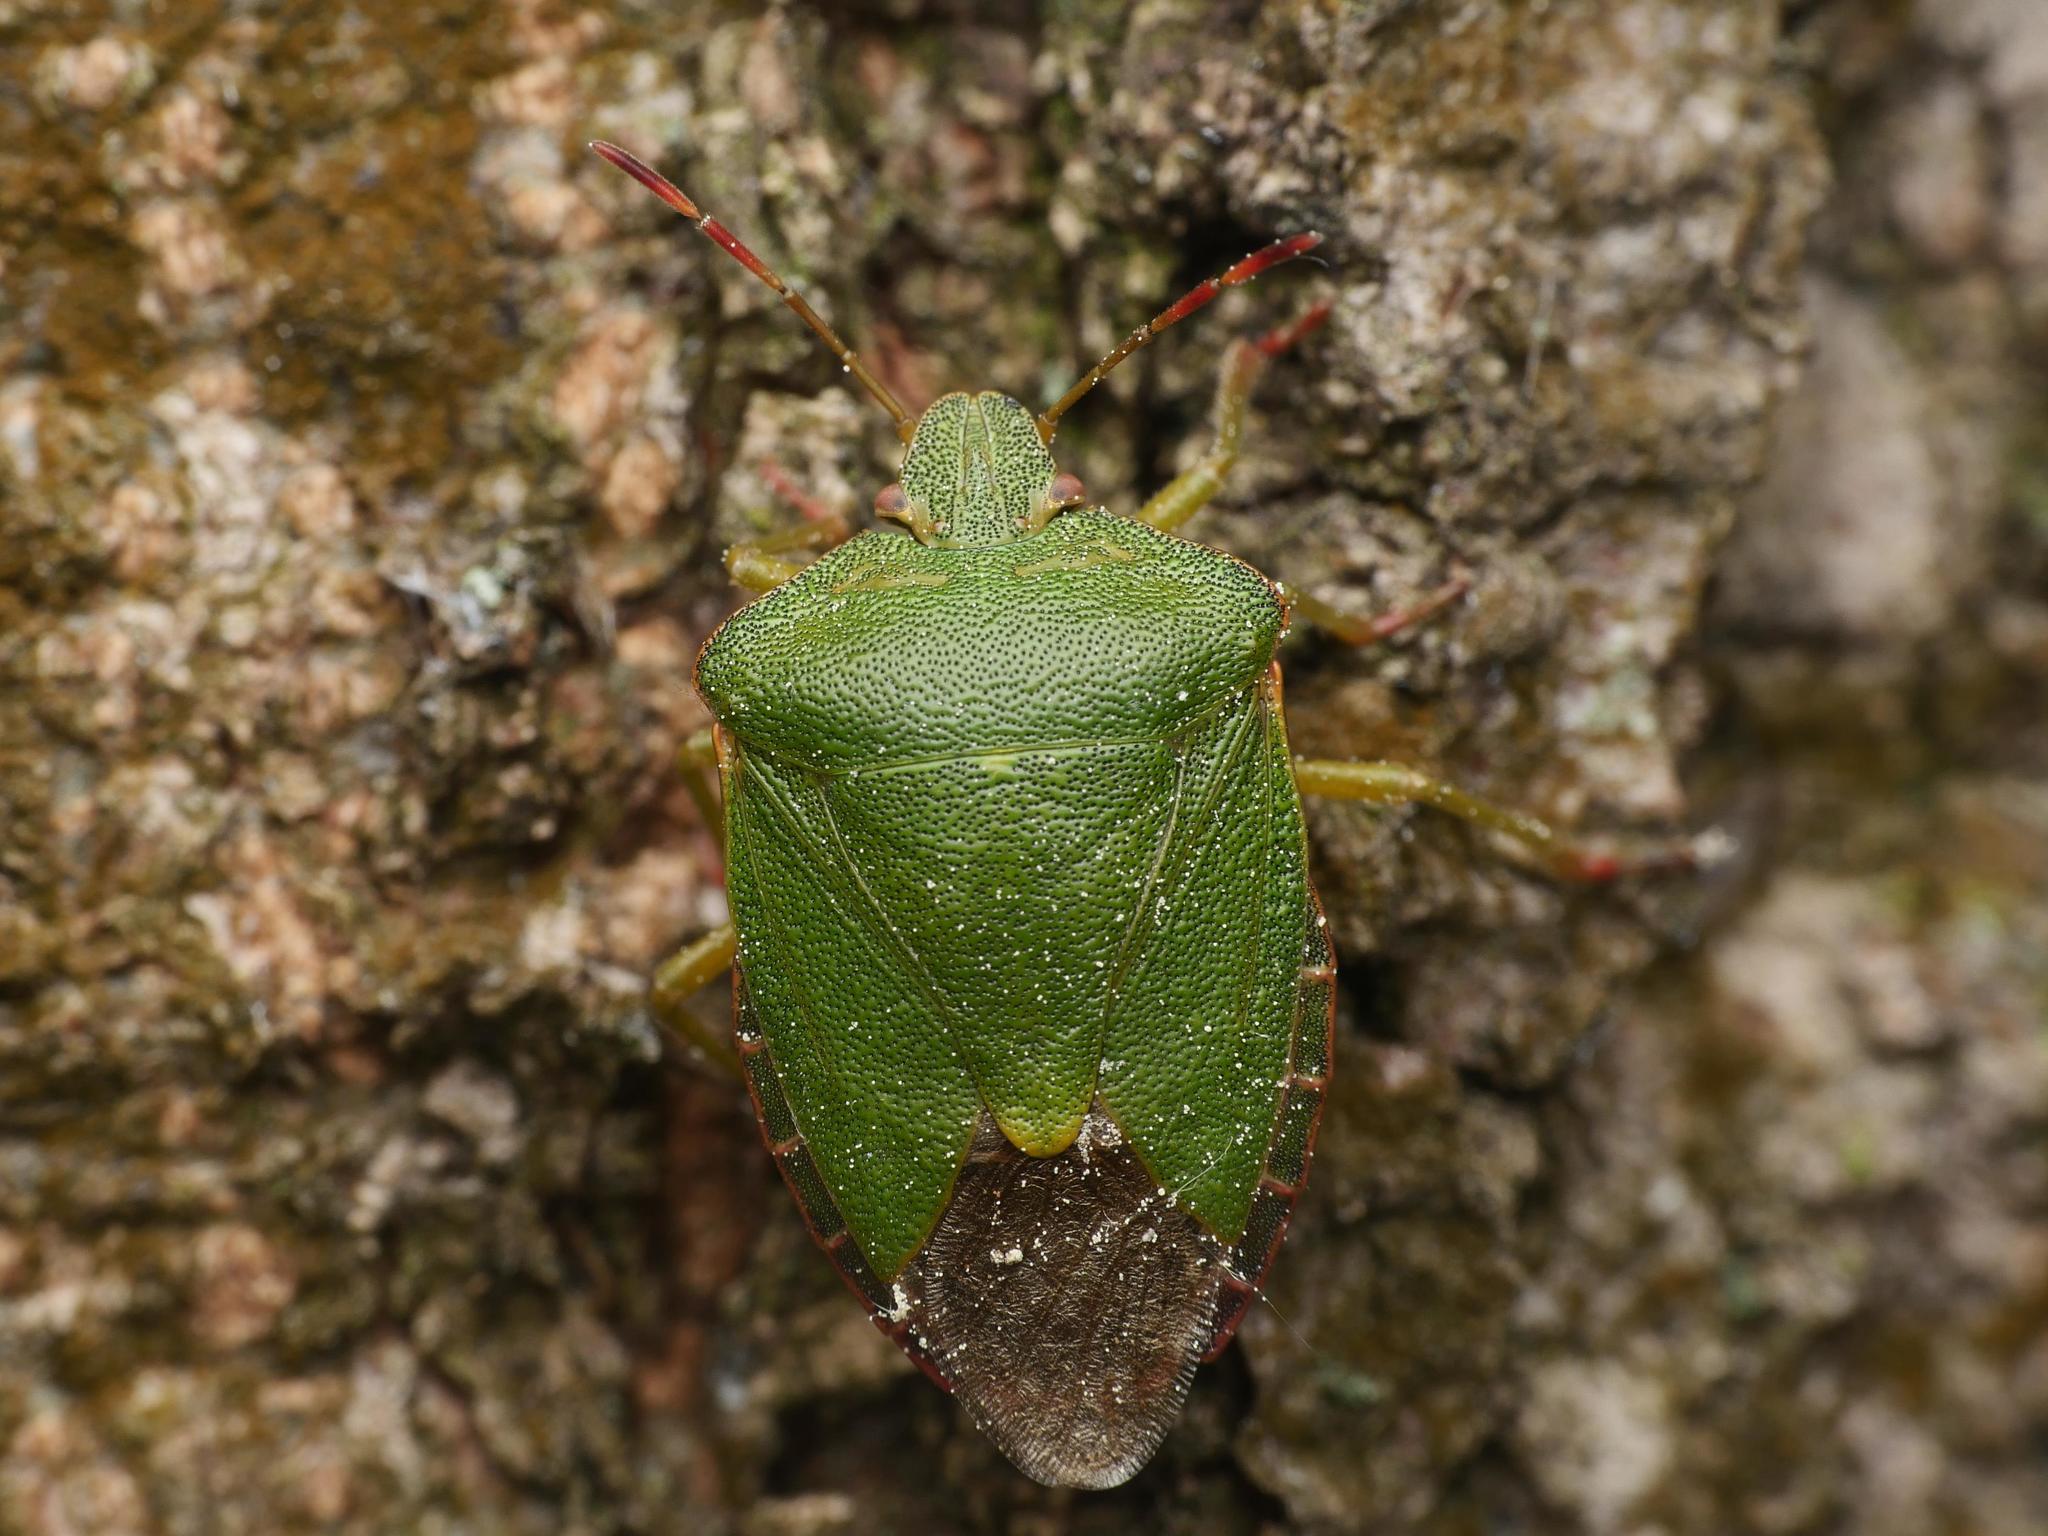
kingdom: Animalia
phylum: Arthropoda
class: Insecta
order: Hemiptera
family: Pentatomidae
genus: Palomena
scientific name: Palomena prasina
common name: Green shieldbug
